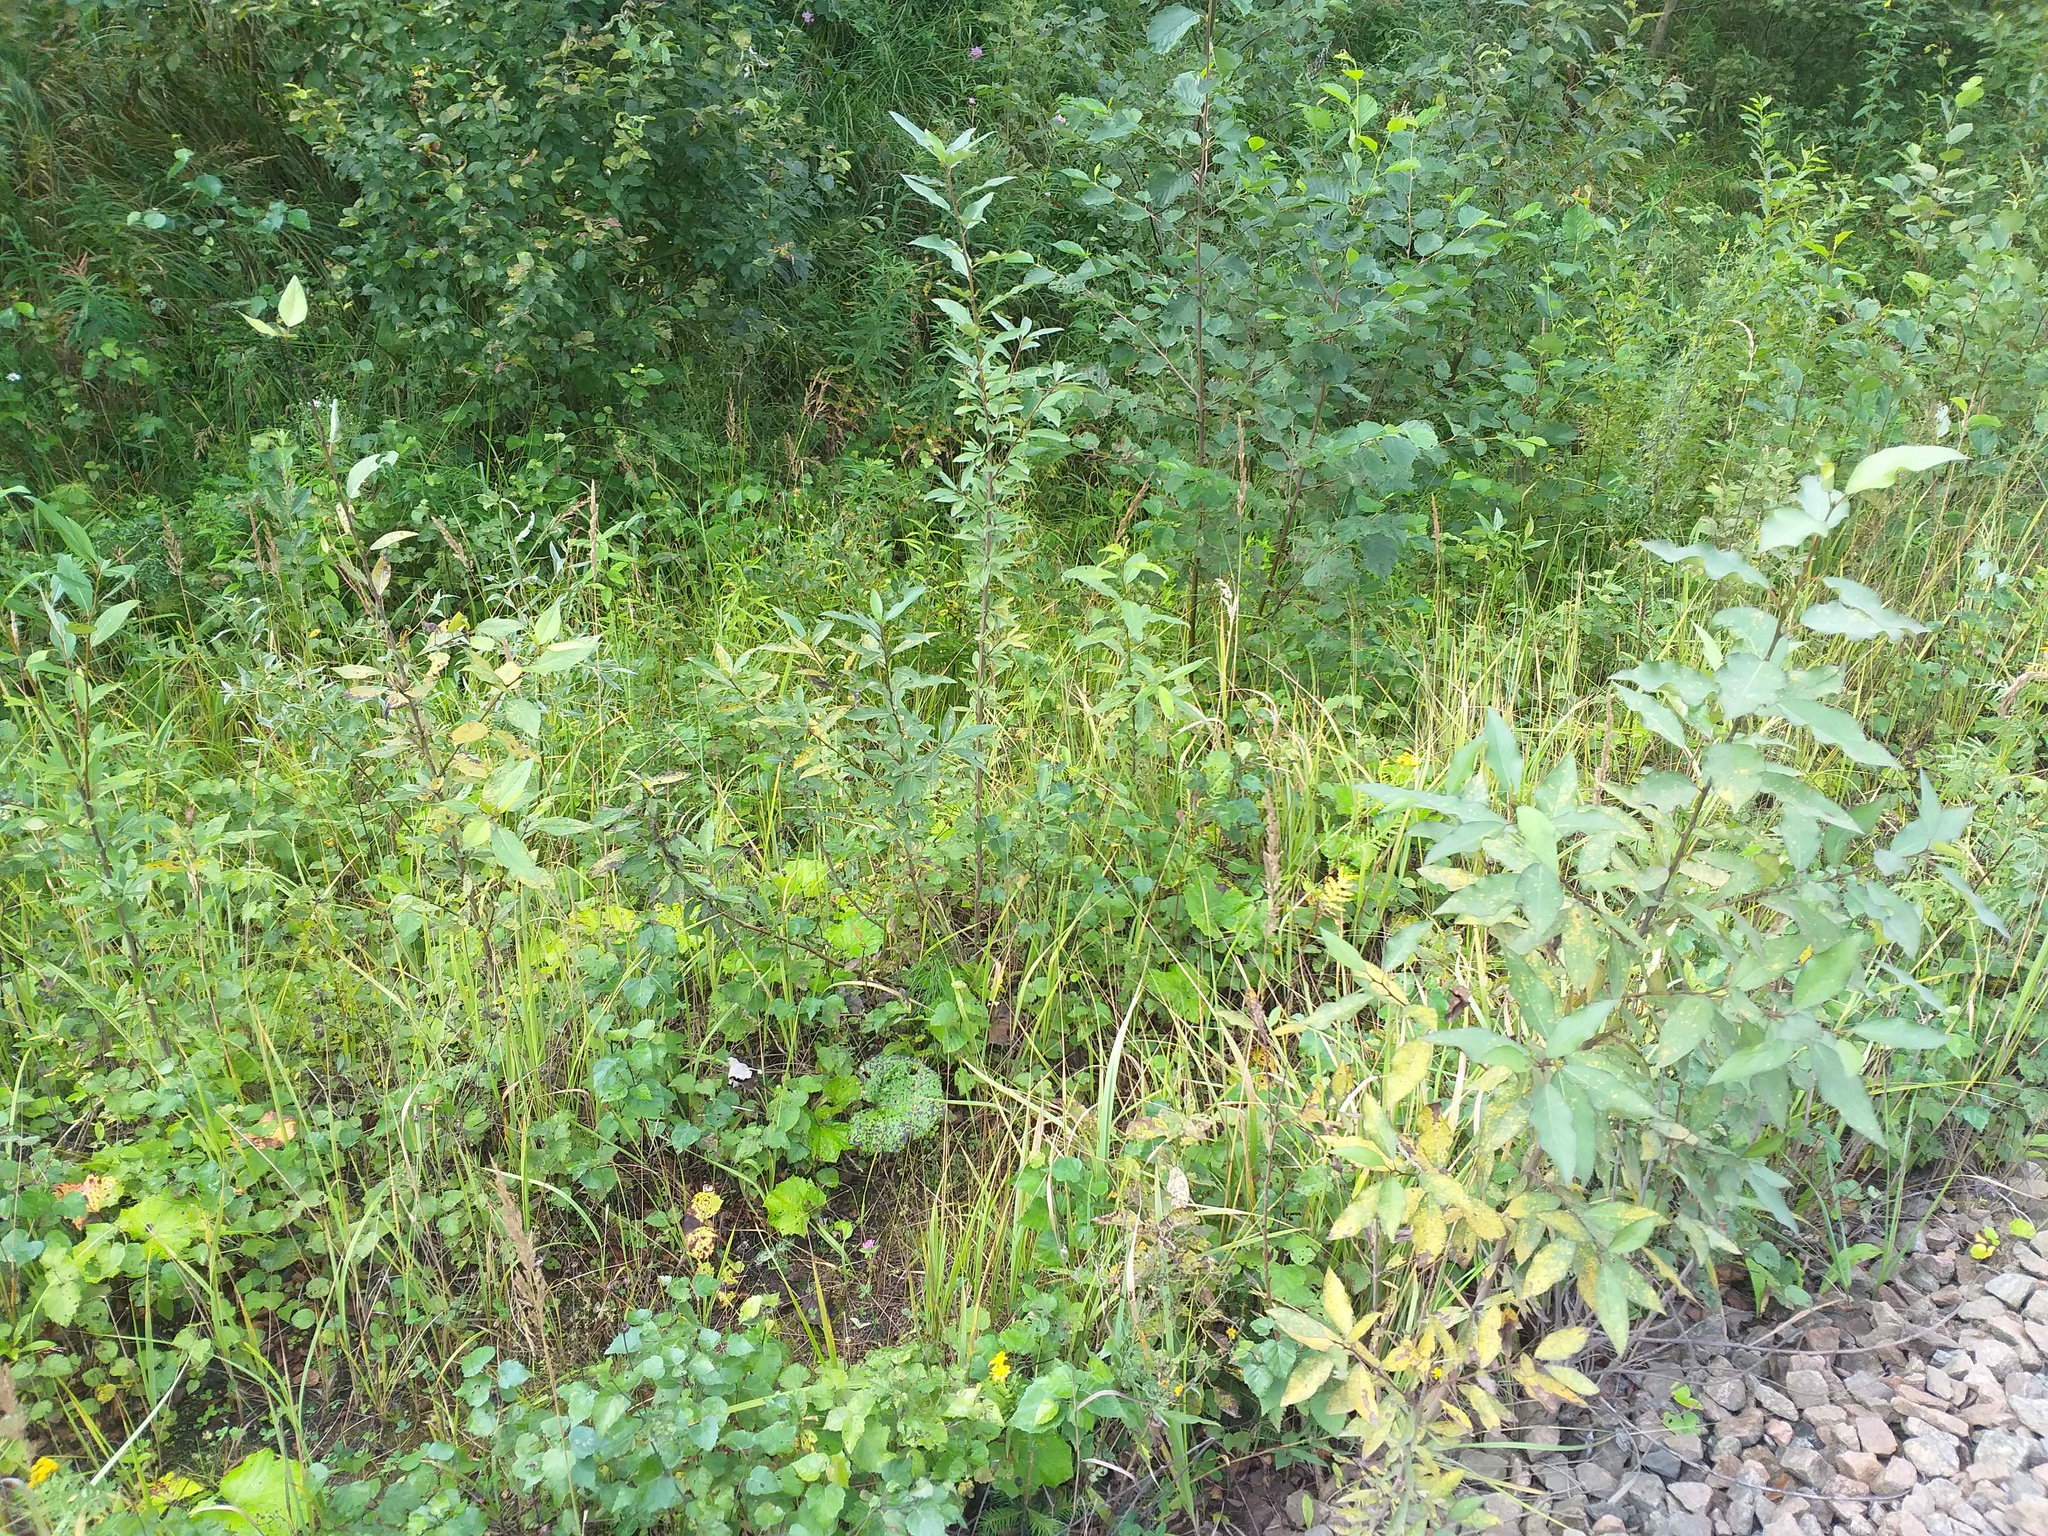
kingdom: Plantae
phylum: Tracheophyta
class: Magnoliopsida
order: Malpighiales
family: Salicaceae
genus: Populus
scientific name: Populus
